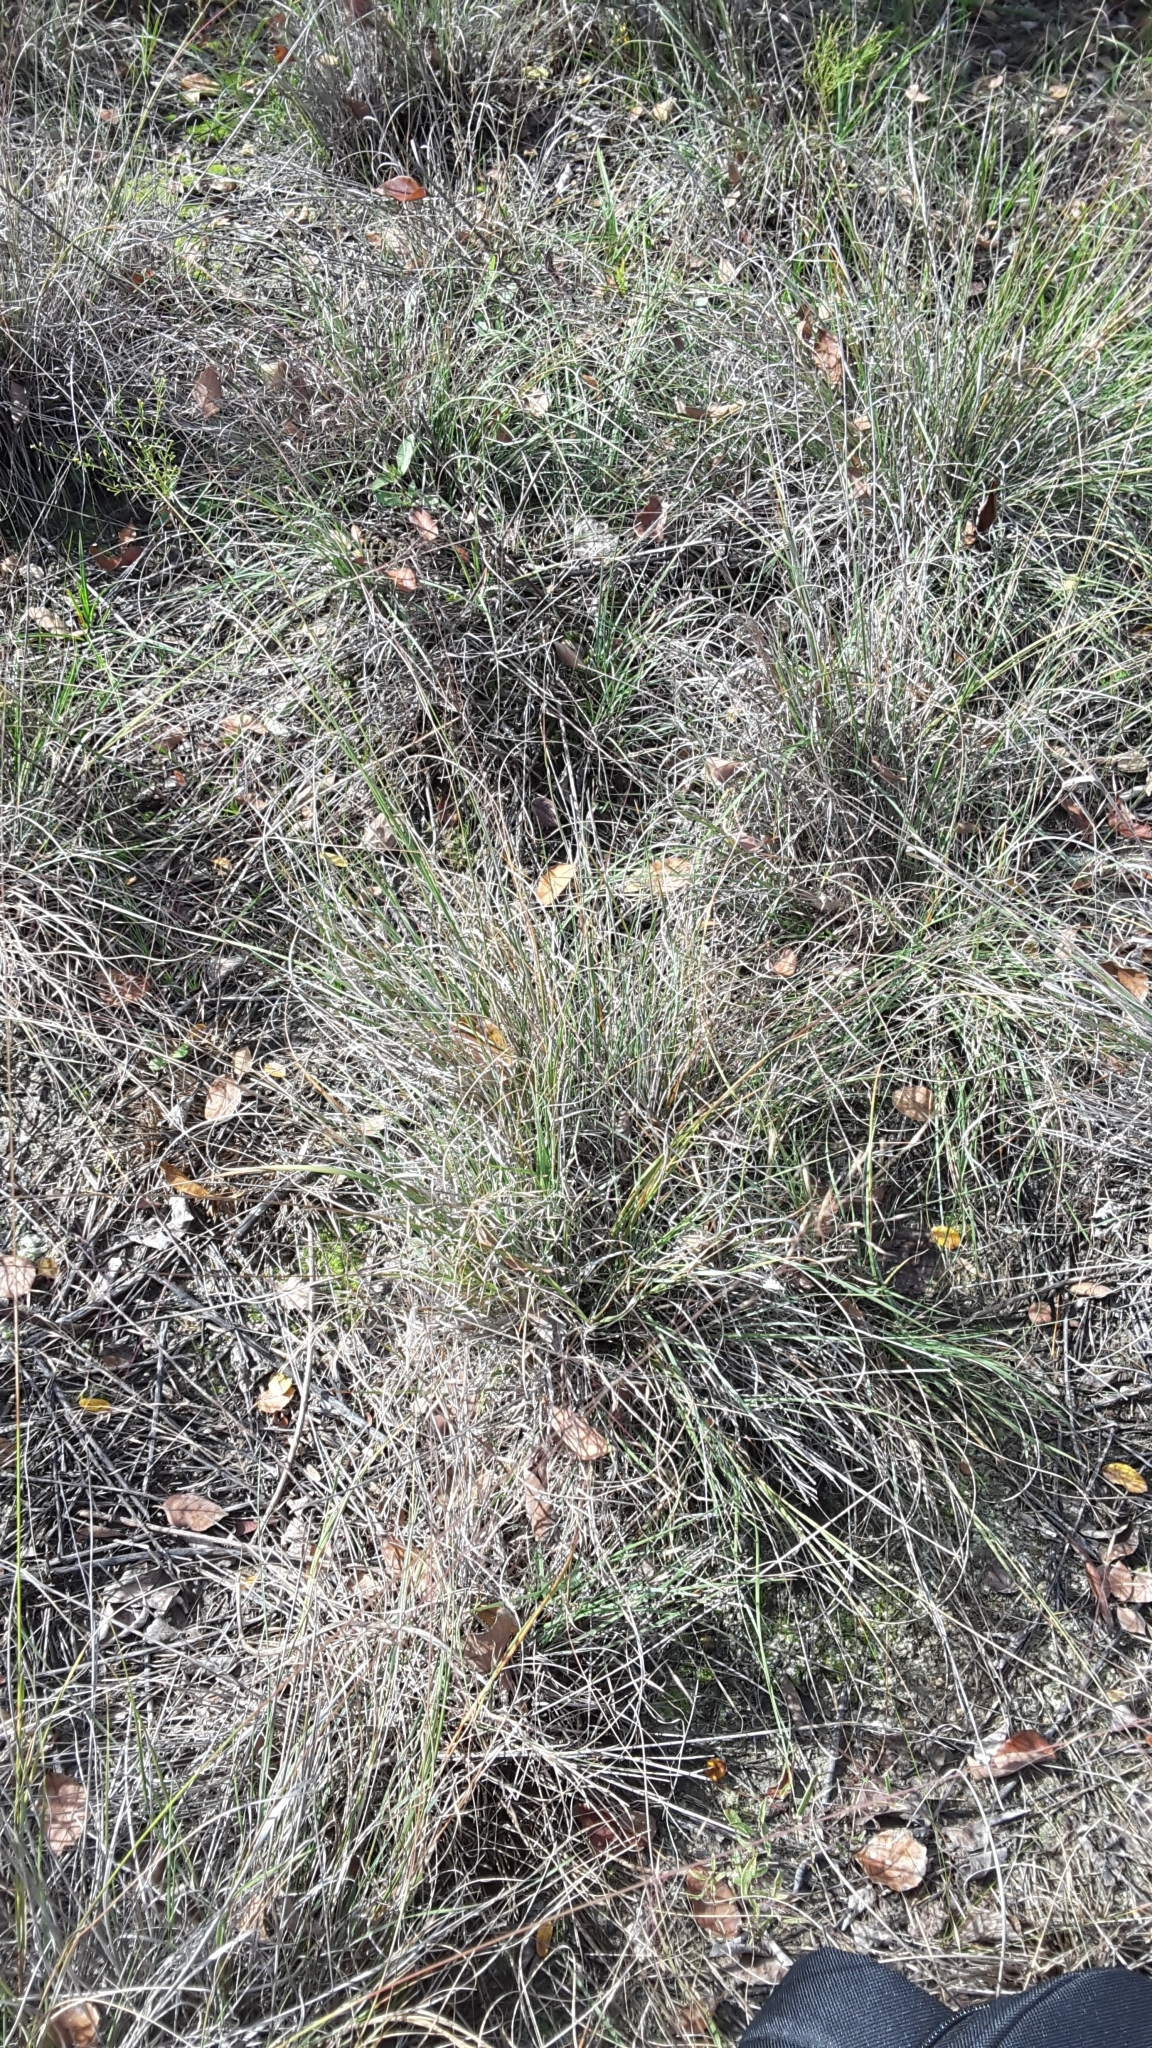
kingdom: Plantae
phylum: Tracheophyta
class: Liliopsida
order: Poales
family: Poaceae
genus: Muhlenbergia
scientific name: Muhlenbergia reverchonii
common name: Seep muhly
